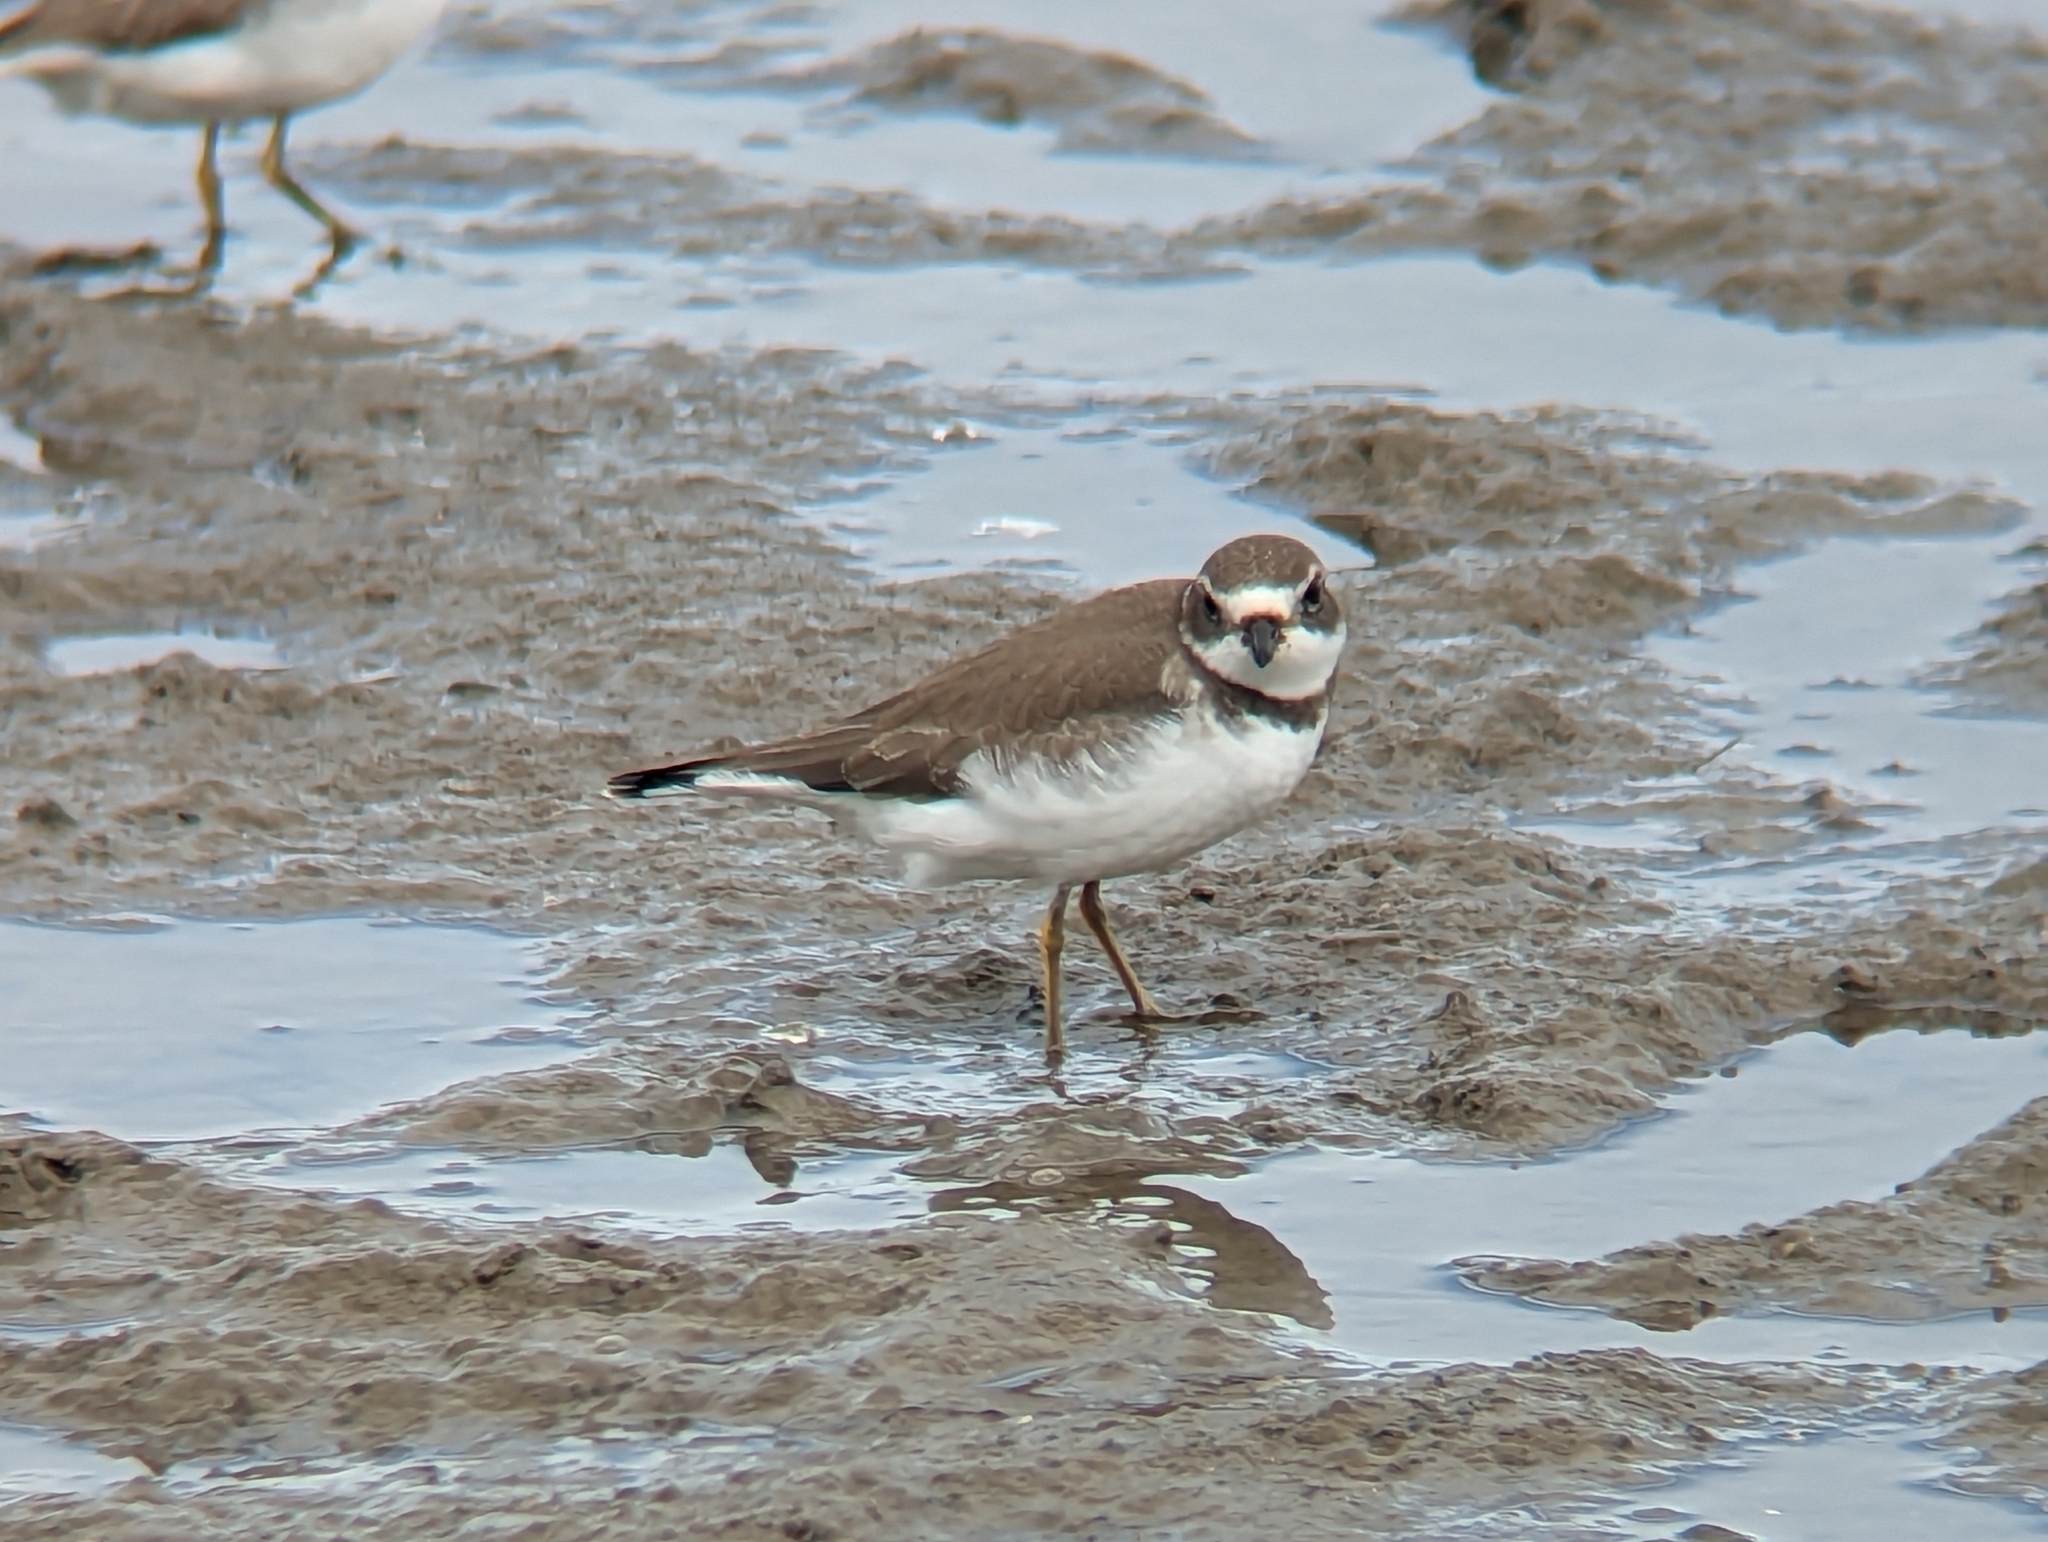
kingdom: Animalia
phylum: Chordata
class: Aves
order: Charadriiformes
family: Charadriidae
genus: Charadrius
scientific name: Charadrius semipalmatus
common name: Semipalmated plover
